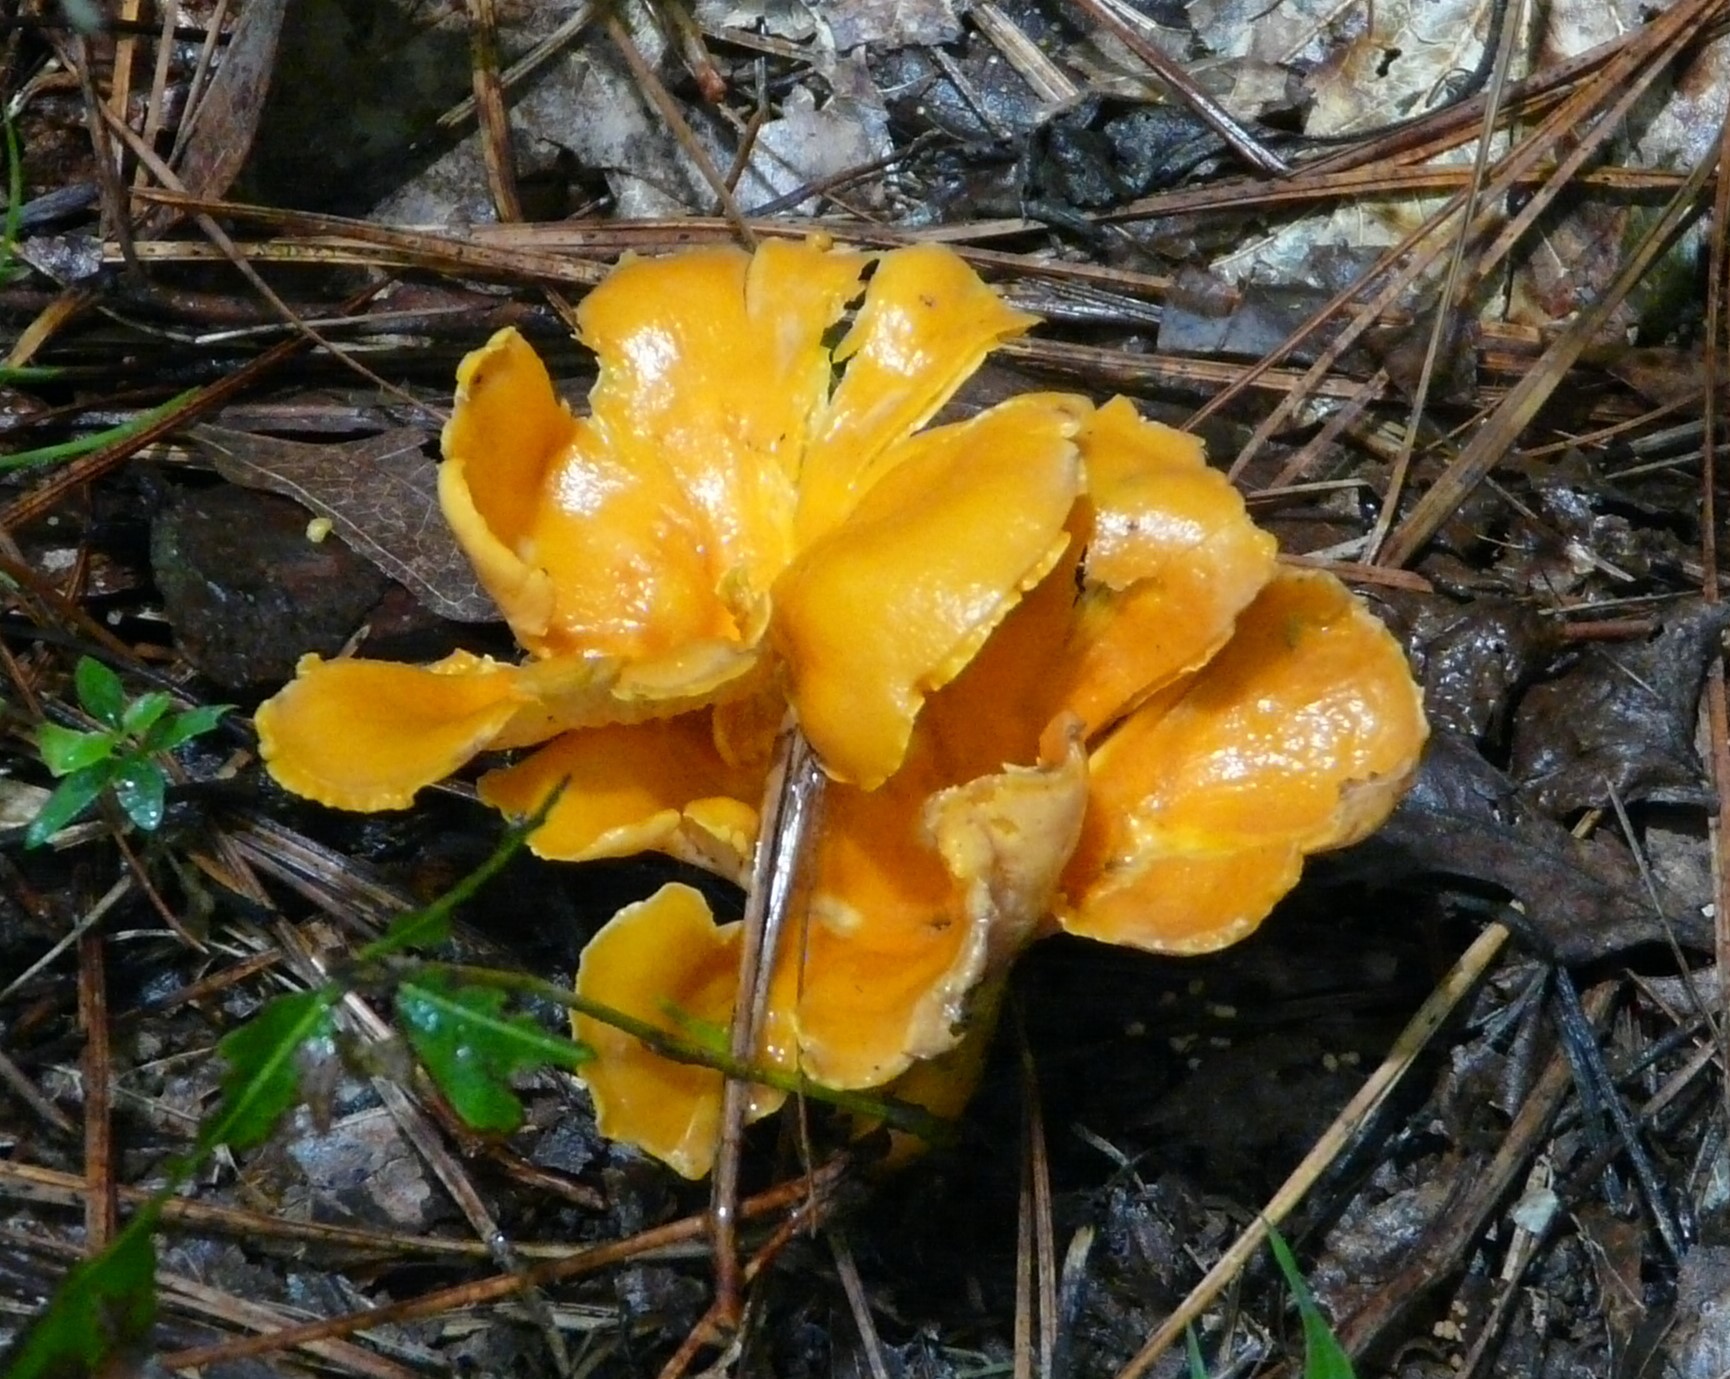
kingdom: Fungi
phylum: Basidiomycota
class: Agaricomycetes
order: Cantharellales
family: Hydnaceae
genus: Cantharellus
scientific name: Cantharellus lateritius
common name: Smooth chanterelle
